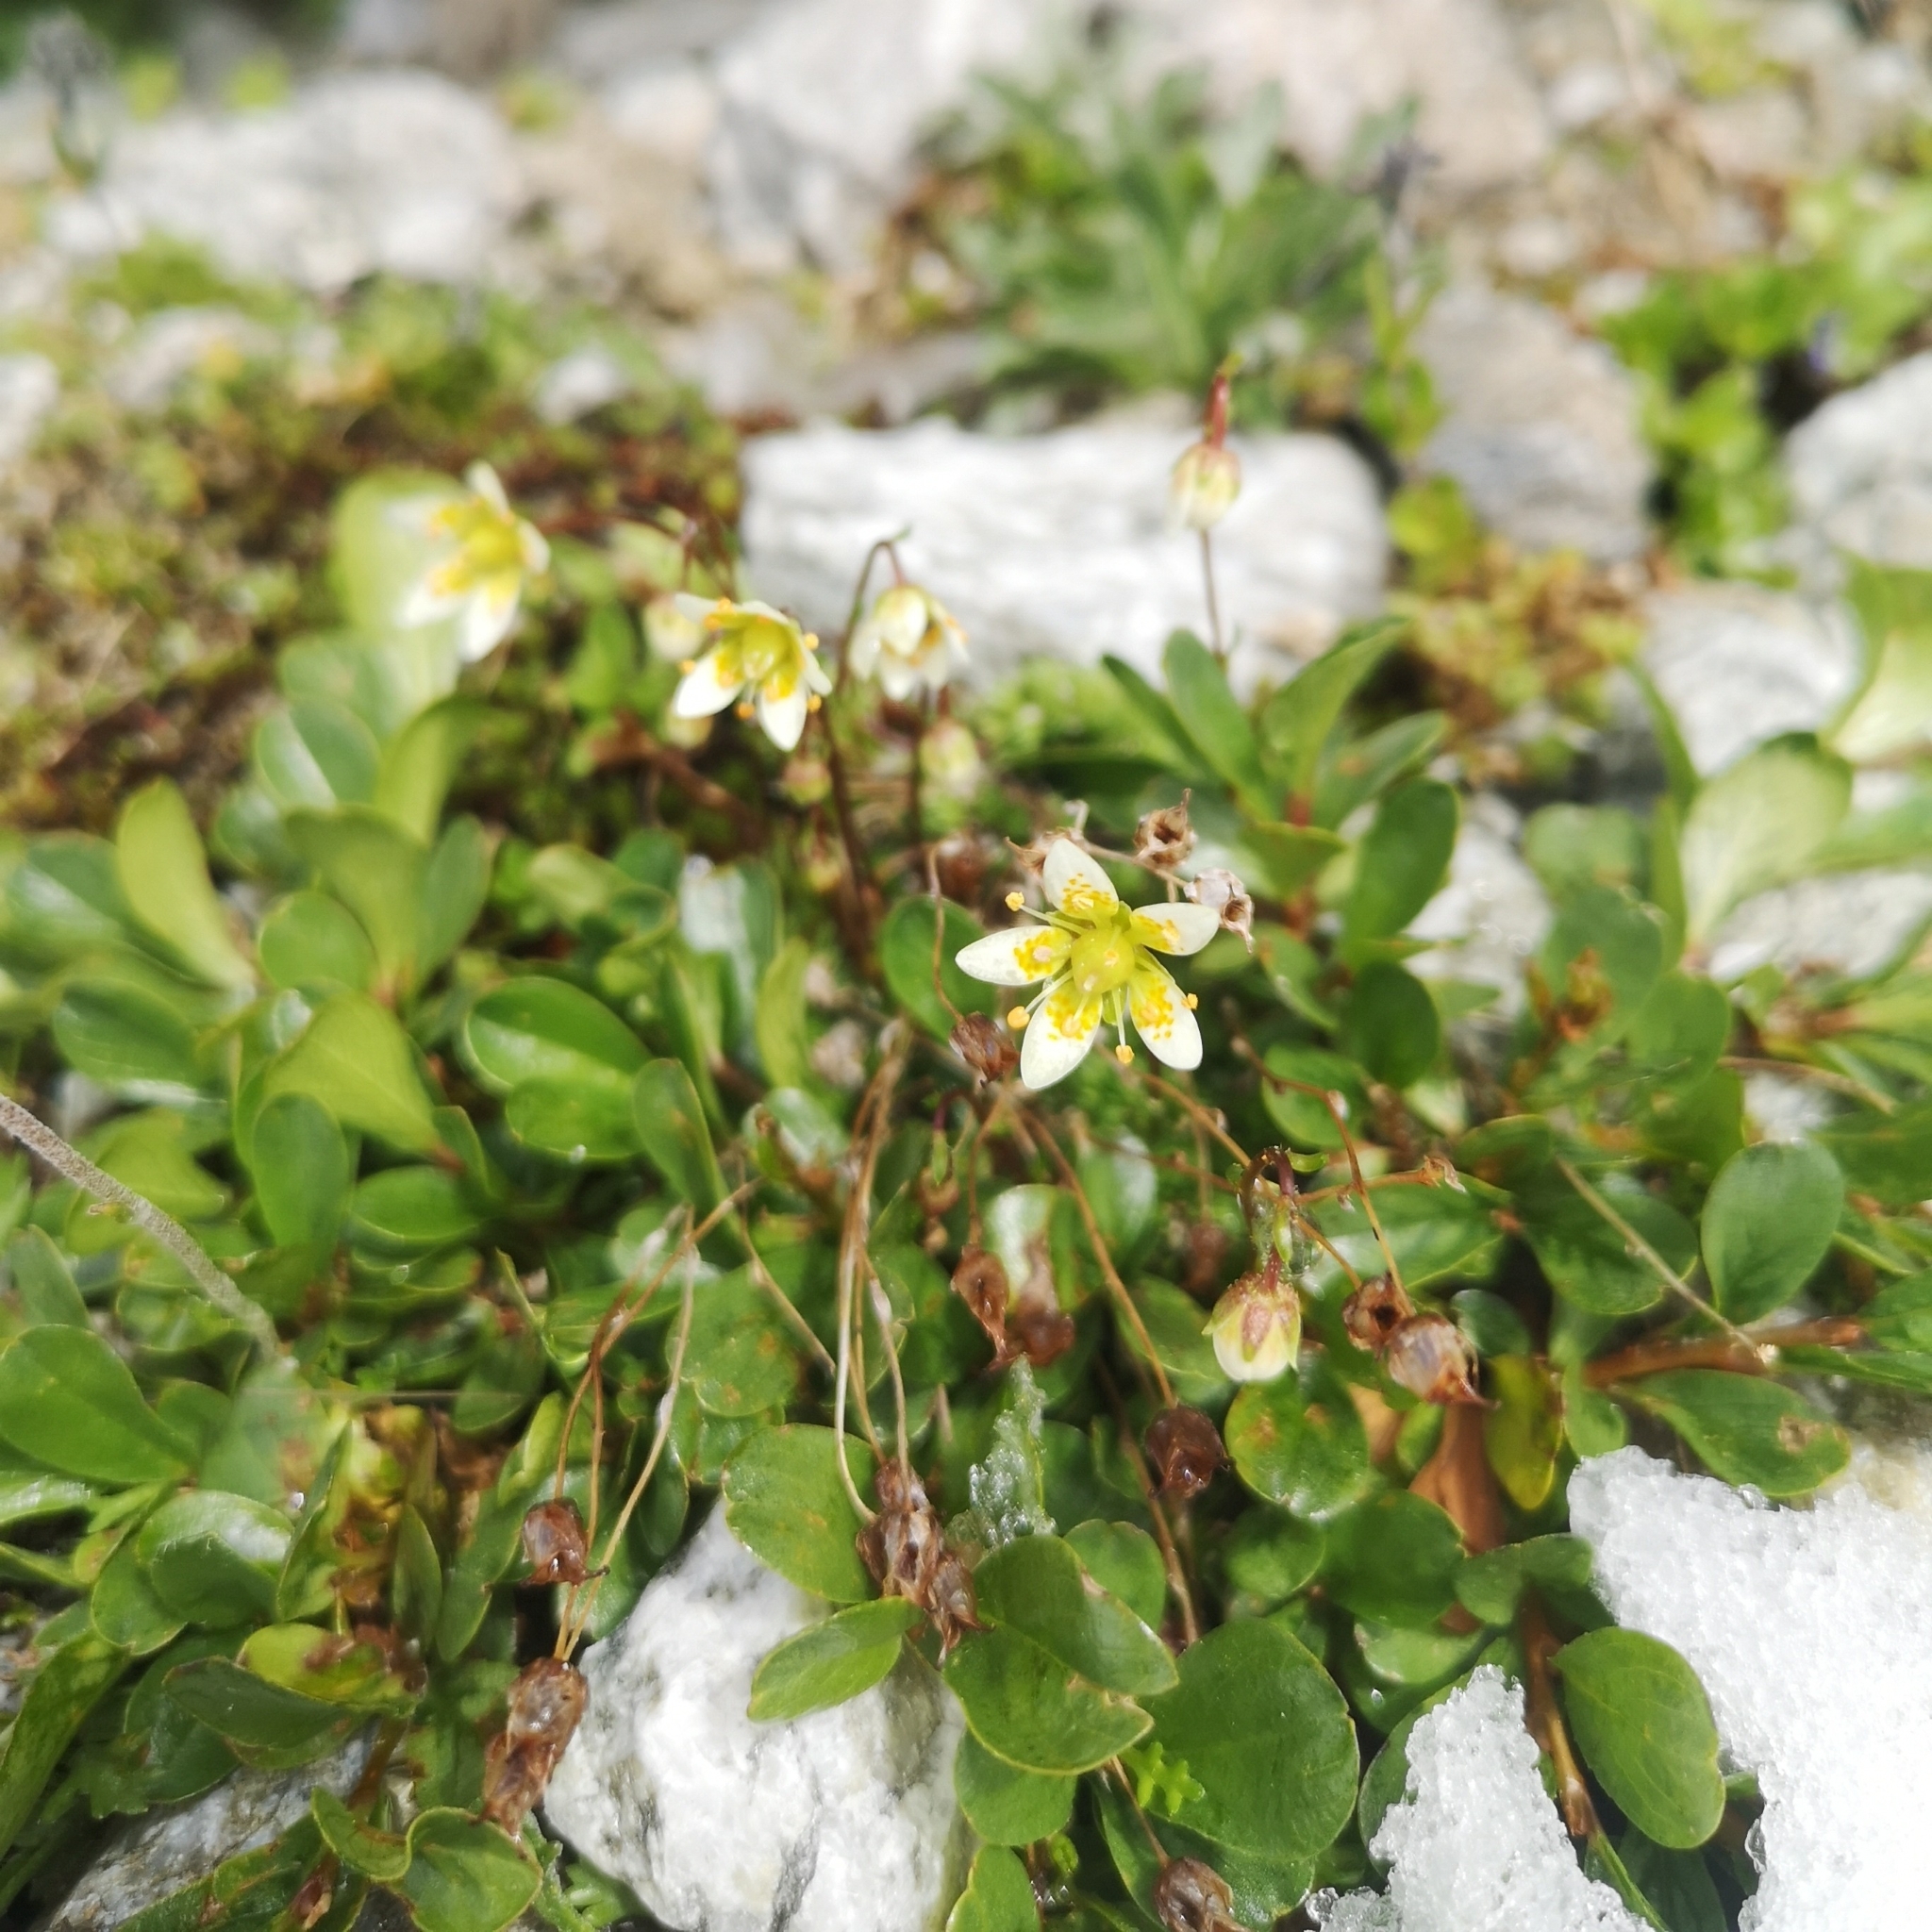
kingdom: Plantae
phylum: Tracheophyta
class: Magnoliopsida
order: Saxifragales
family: Saxifragaceae
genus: Saxifraga
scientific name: Saxifraga bryoides
